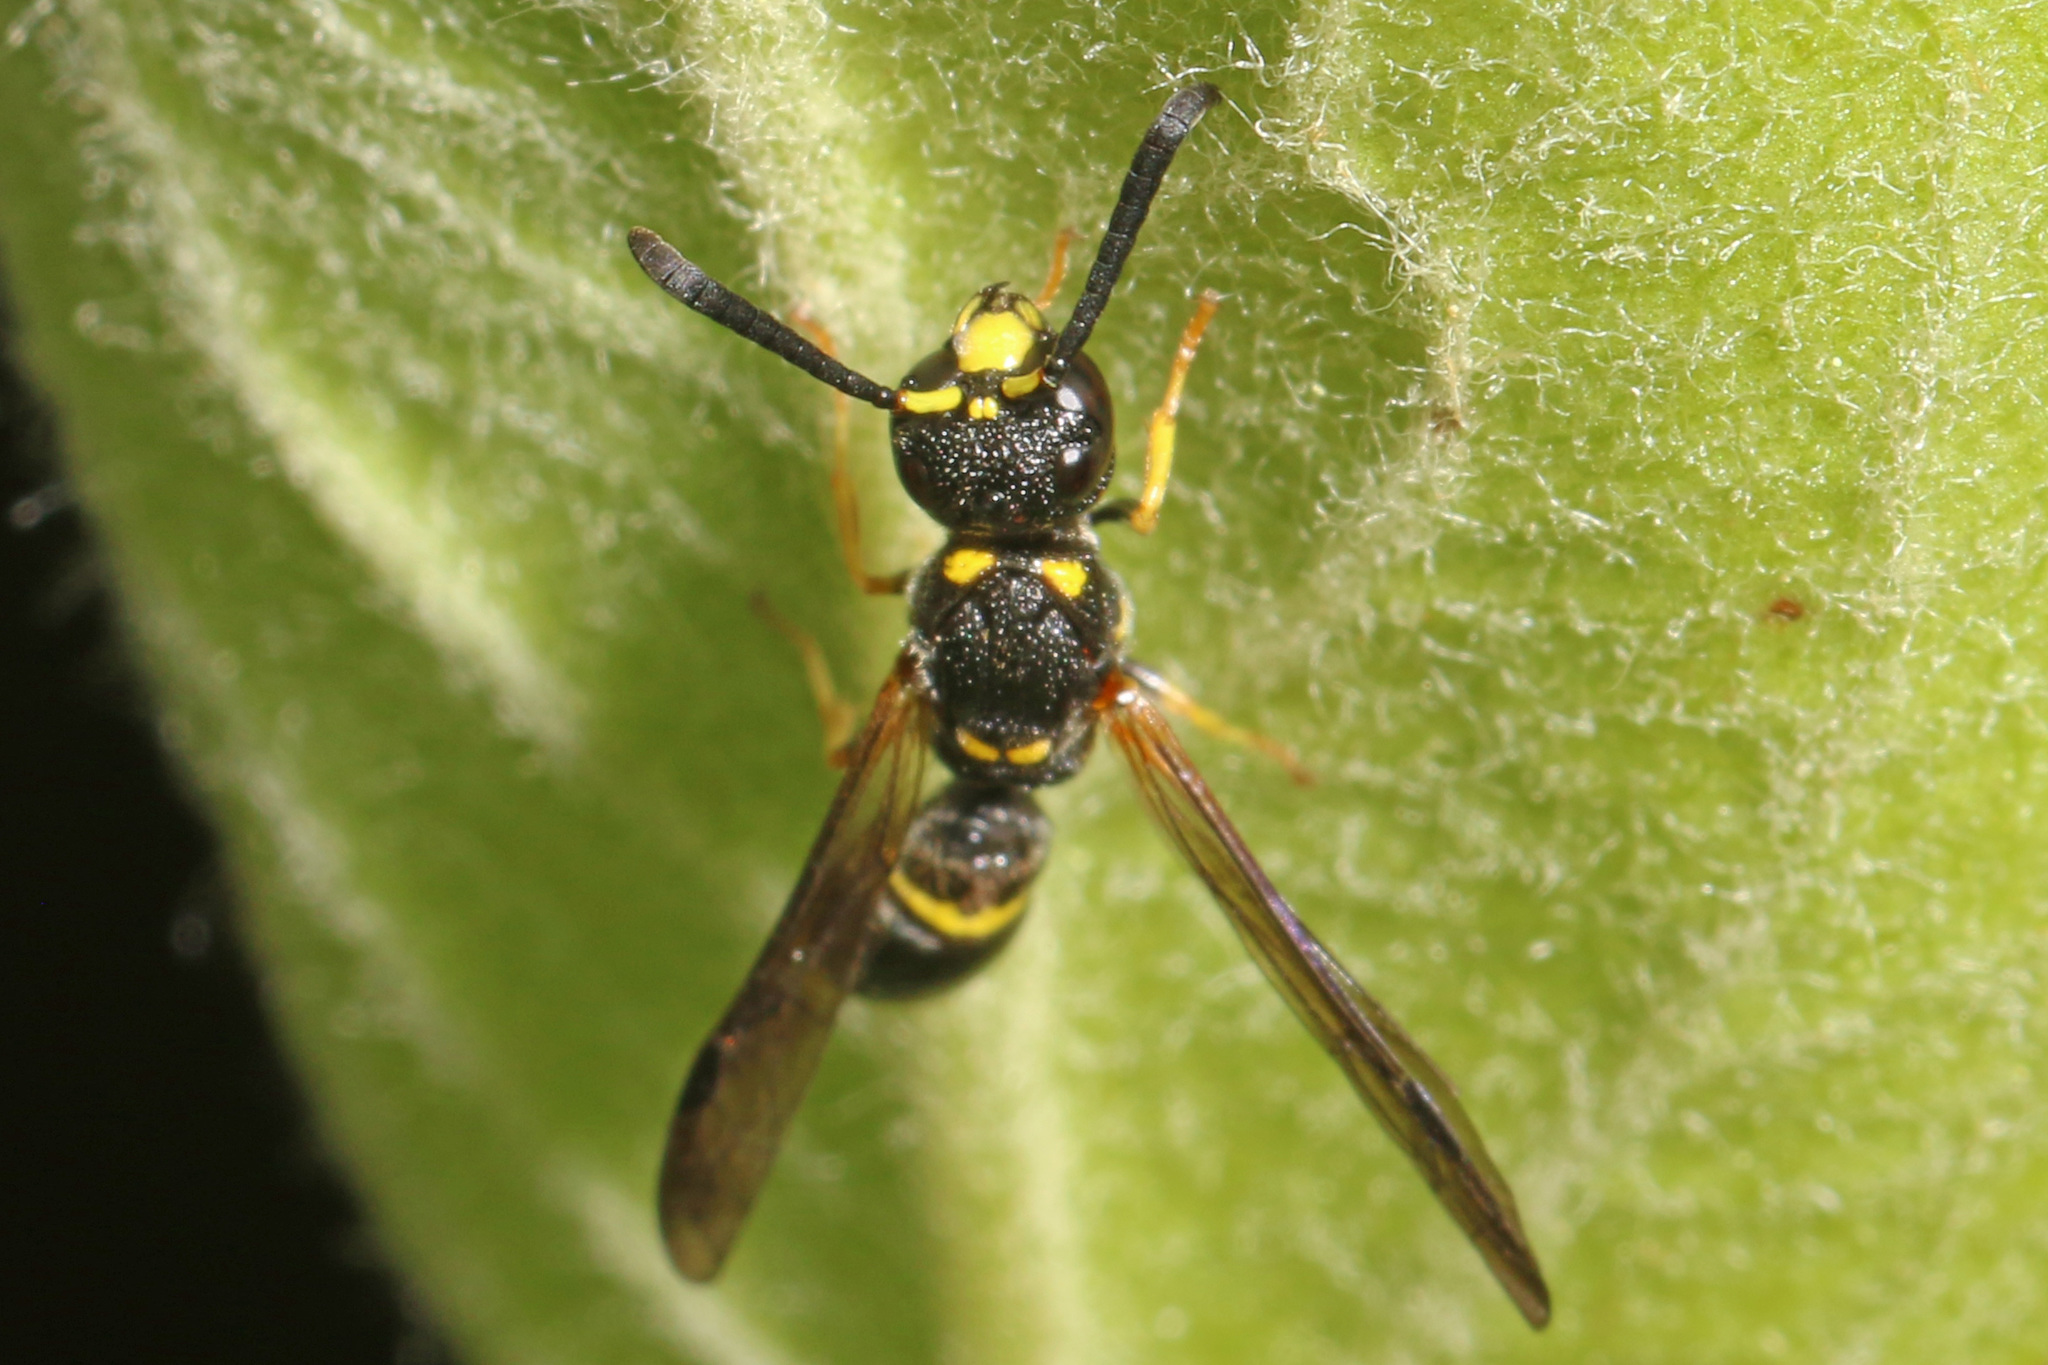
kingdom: Animalia
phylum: Arthropoda
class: Insecta
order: Hymenoptera
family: Eumenidae
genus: Symmorphus
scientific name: Symmorphus
